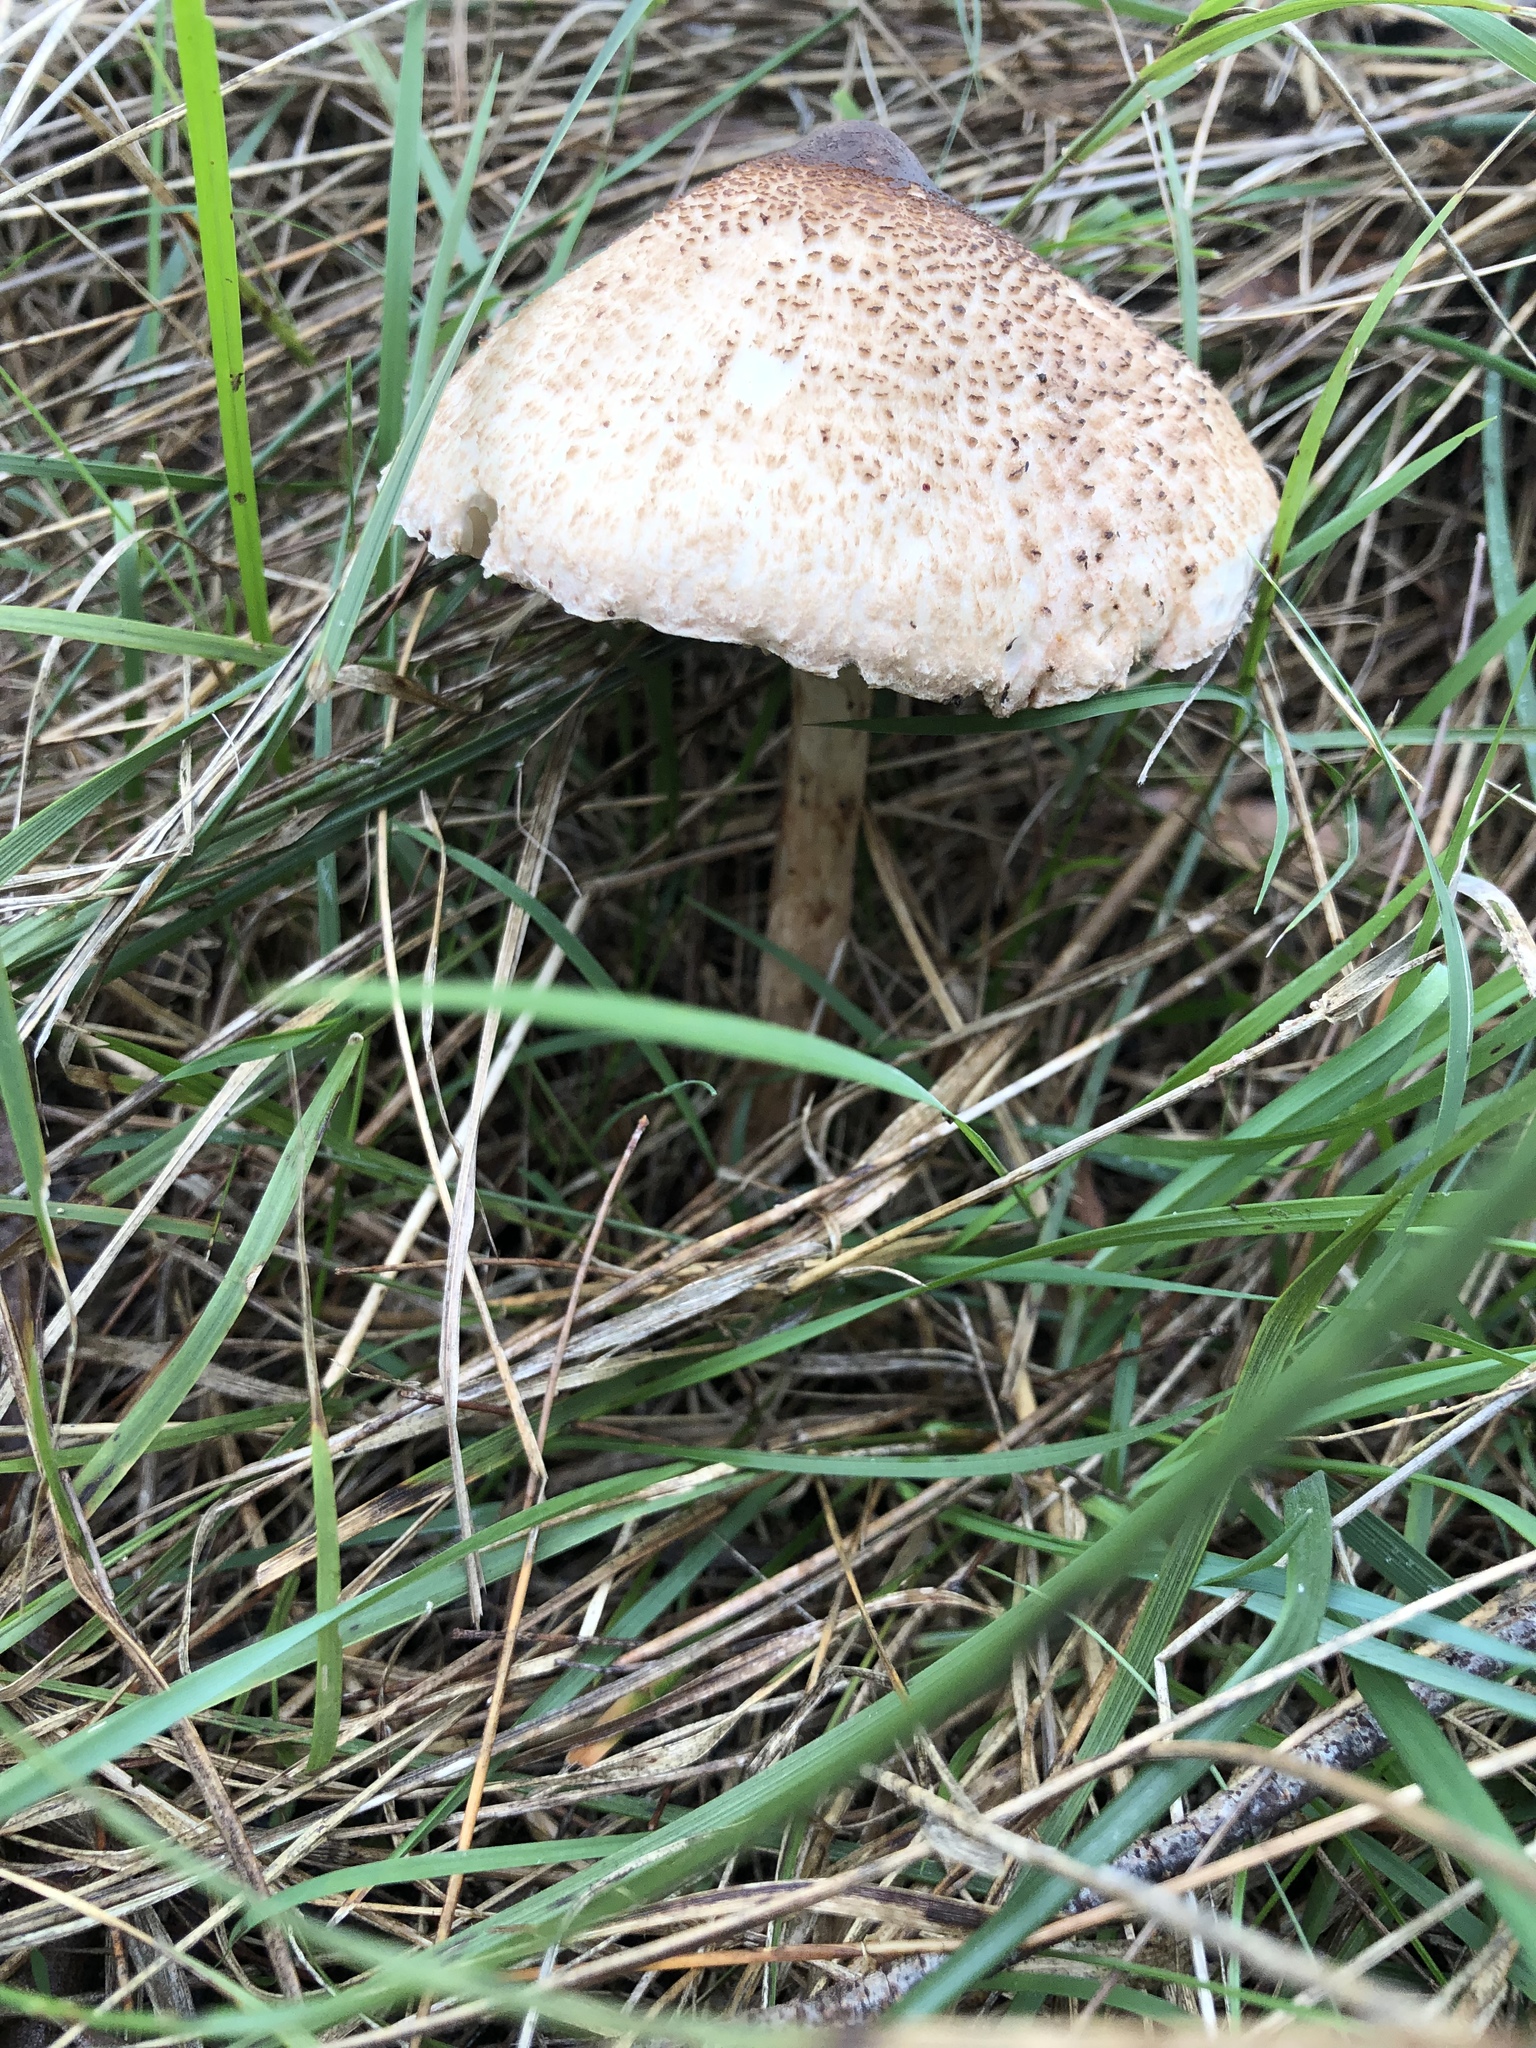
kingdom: Fungi
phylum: Basidiomycota
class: Agaricomycetes
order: Agaricales
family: Agaricaceae
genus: Macrolepiota
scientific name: Macrolepiota clelandii
